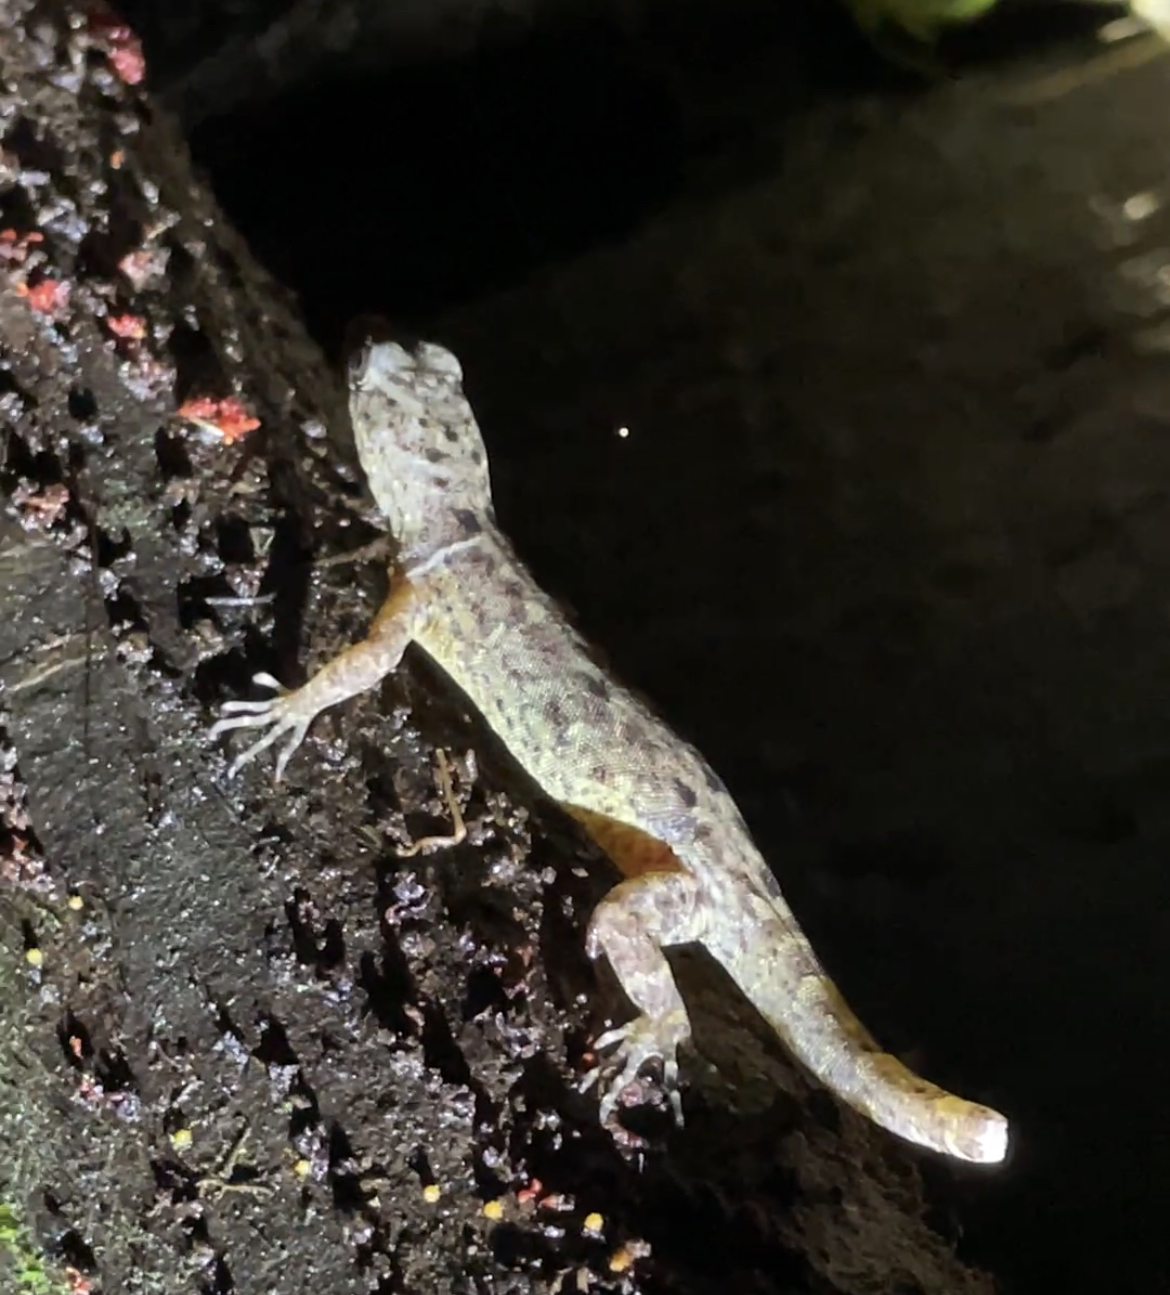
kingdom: Animalia
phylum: Chordata
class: Squamata
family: Sphaerodactylidae
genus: Gonatodes
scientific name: Gonatodes humeralis
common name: South american clawed gecko
